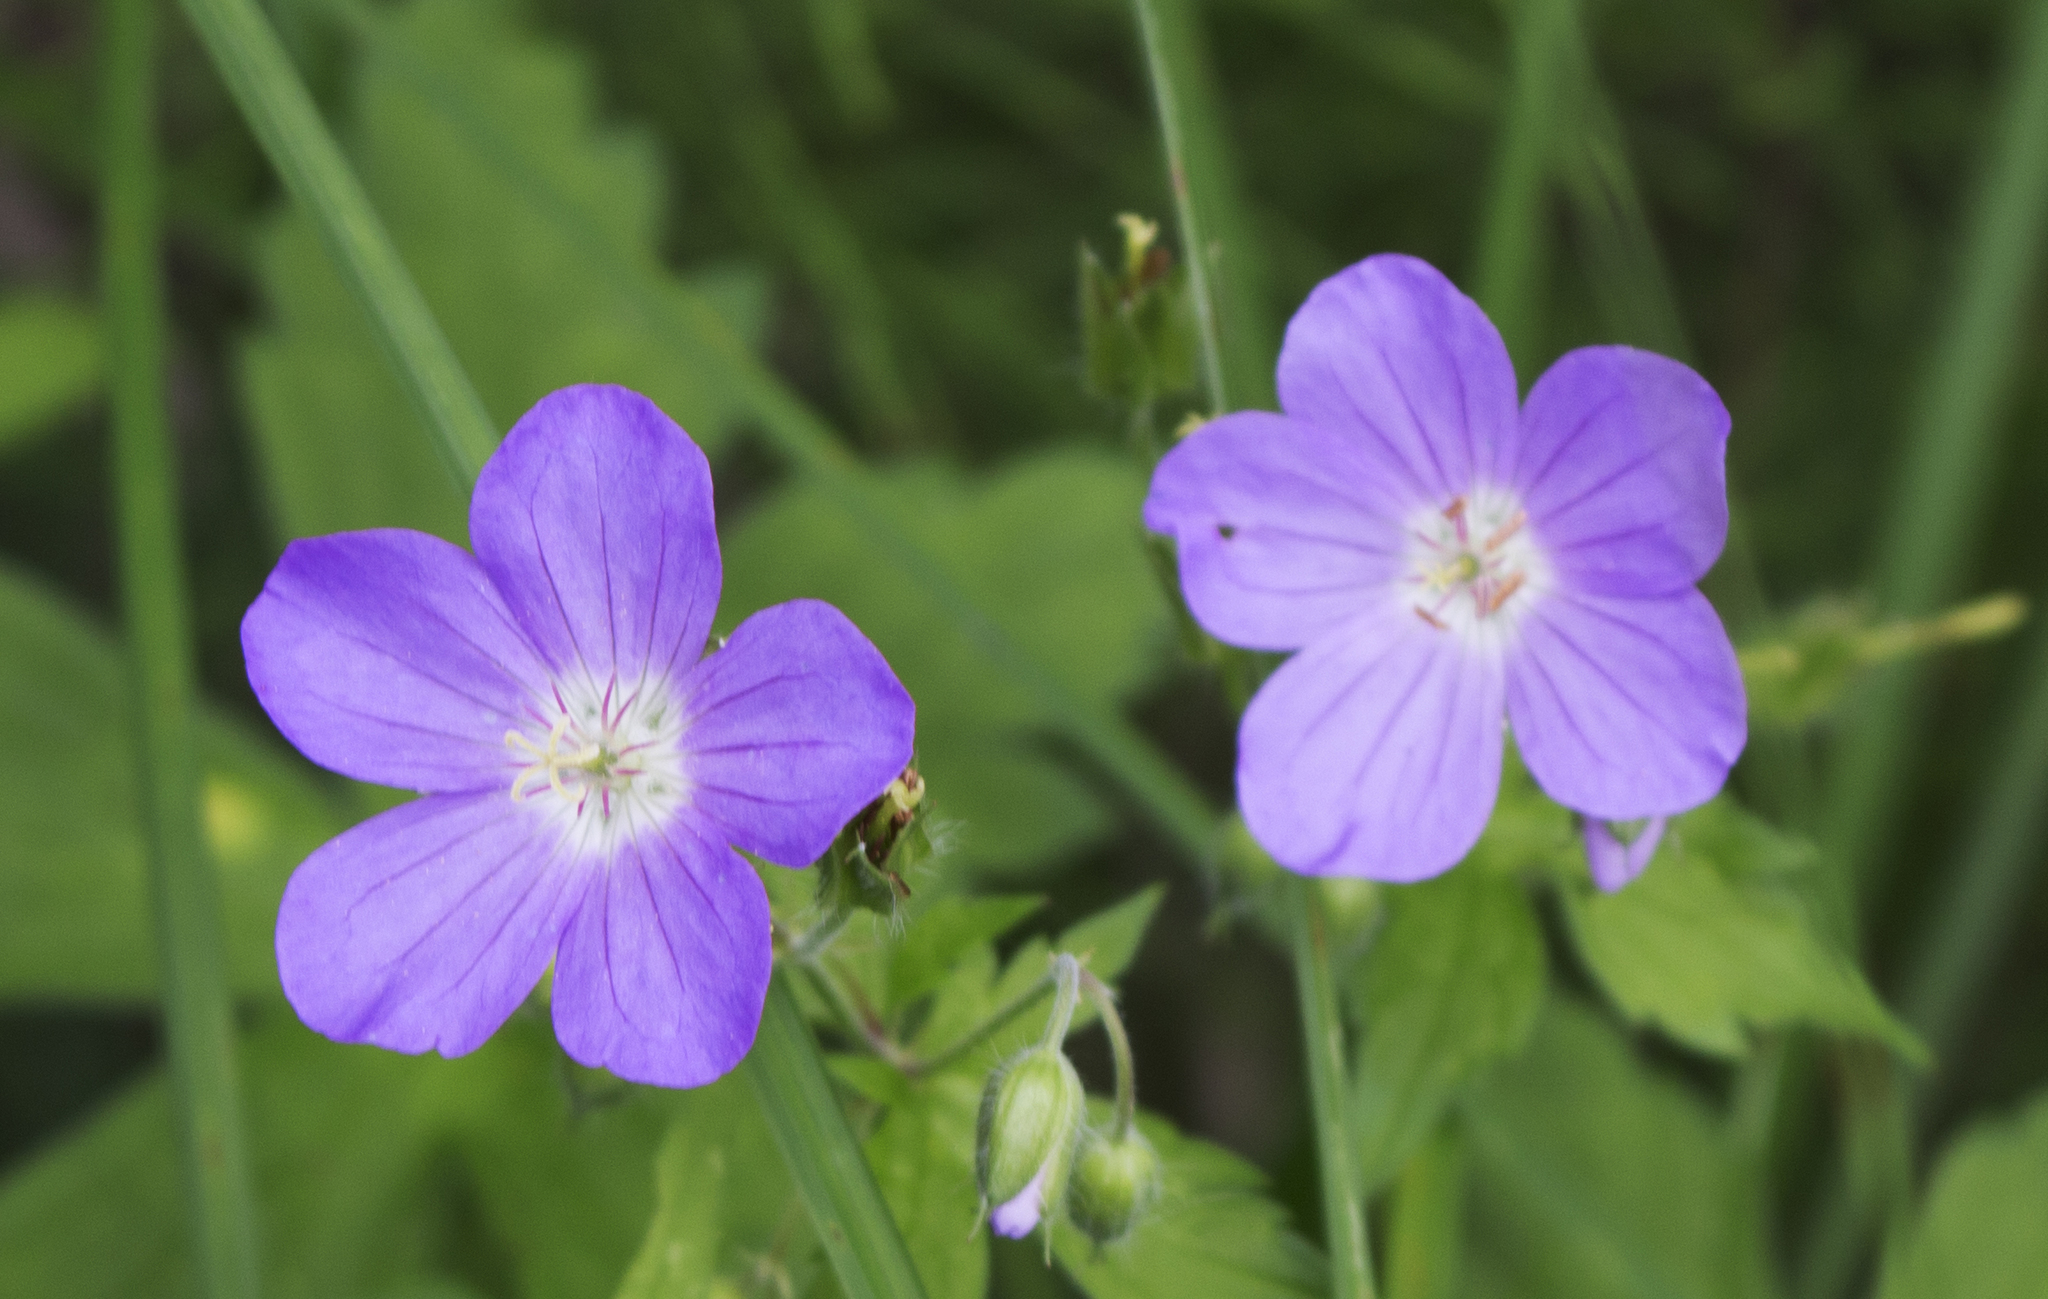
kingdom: Plantae
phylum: Tracheophyta
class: Magnoliopsida
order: Geraniales
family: Geraniaceae
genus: Geranium
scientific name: Geranium maculatum
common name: Spotted geranium
